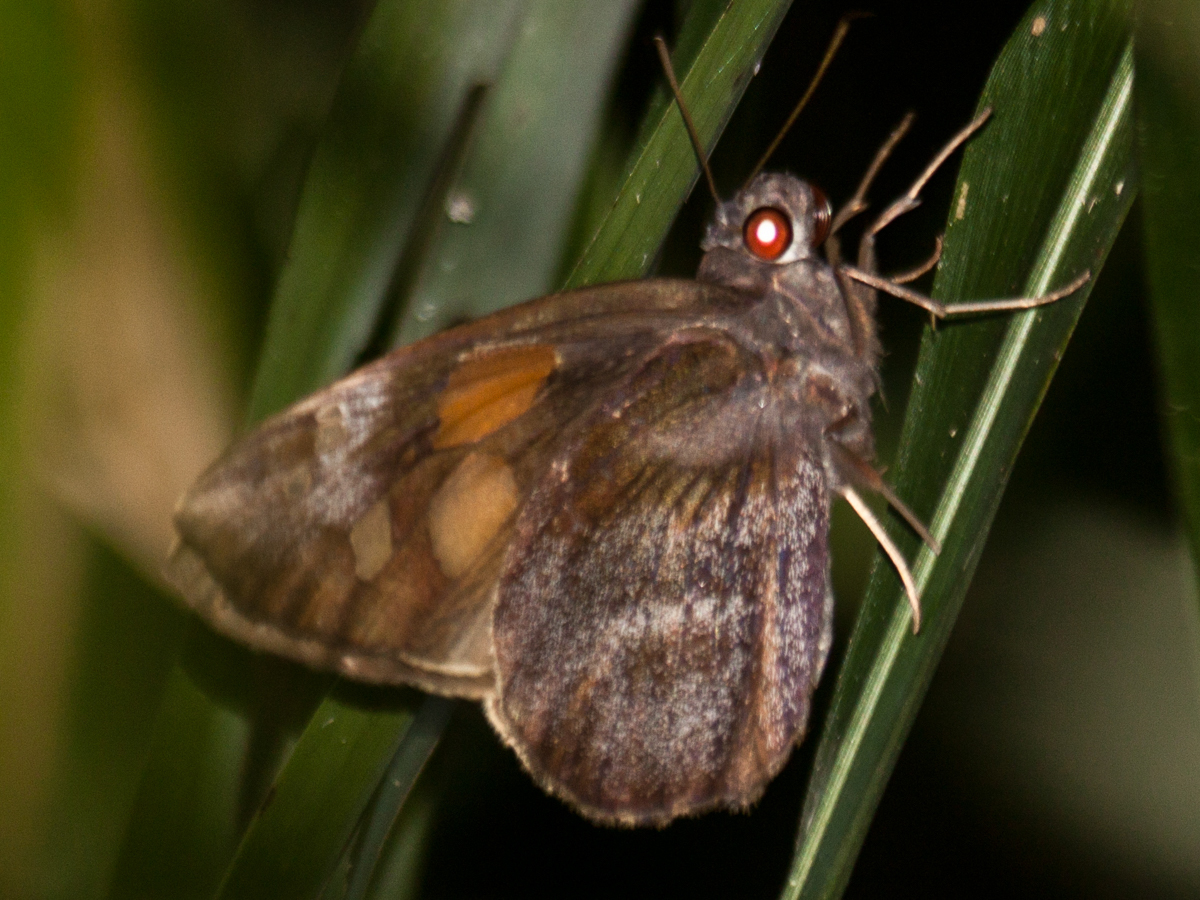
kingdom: Animalia
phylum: Arthropoda
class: Insecta
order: Lepidoptera
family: Hesperiidae
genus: Gangara
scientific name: Gangara thyrsis
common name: Giant redeye
